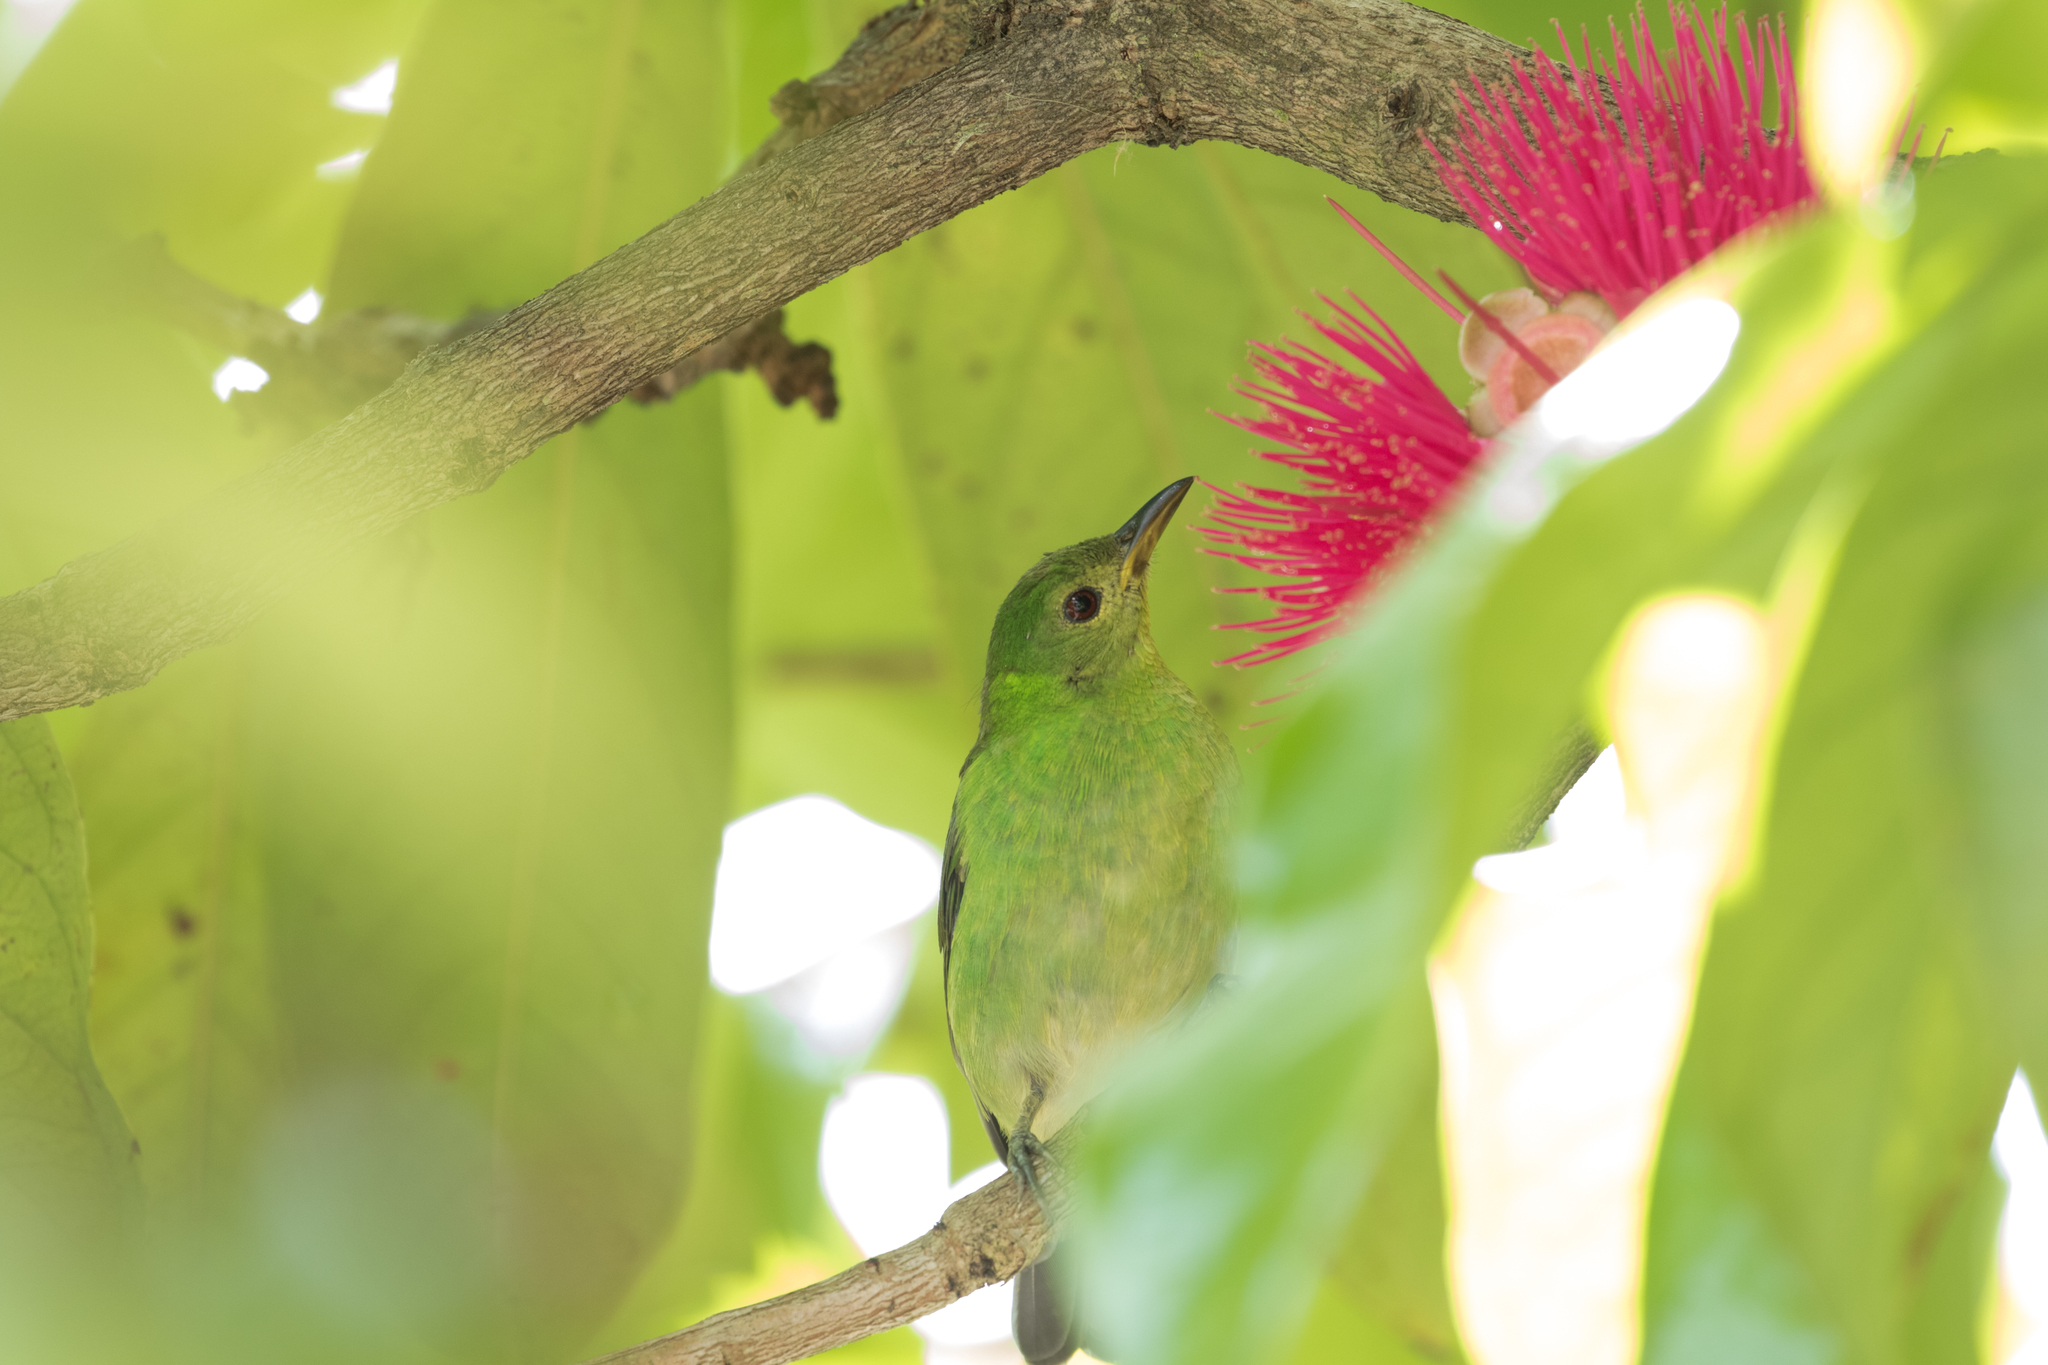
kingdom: Animalia
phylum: Chordata
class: Aves
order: Passeriformes
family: Thraupidae
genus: Chlorophanes
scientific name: Chlorophanes spiza
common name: Green honeycreeper
